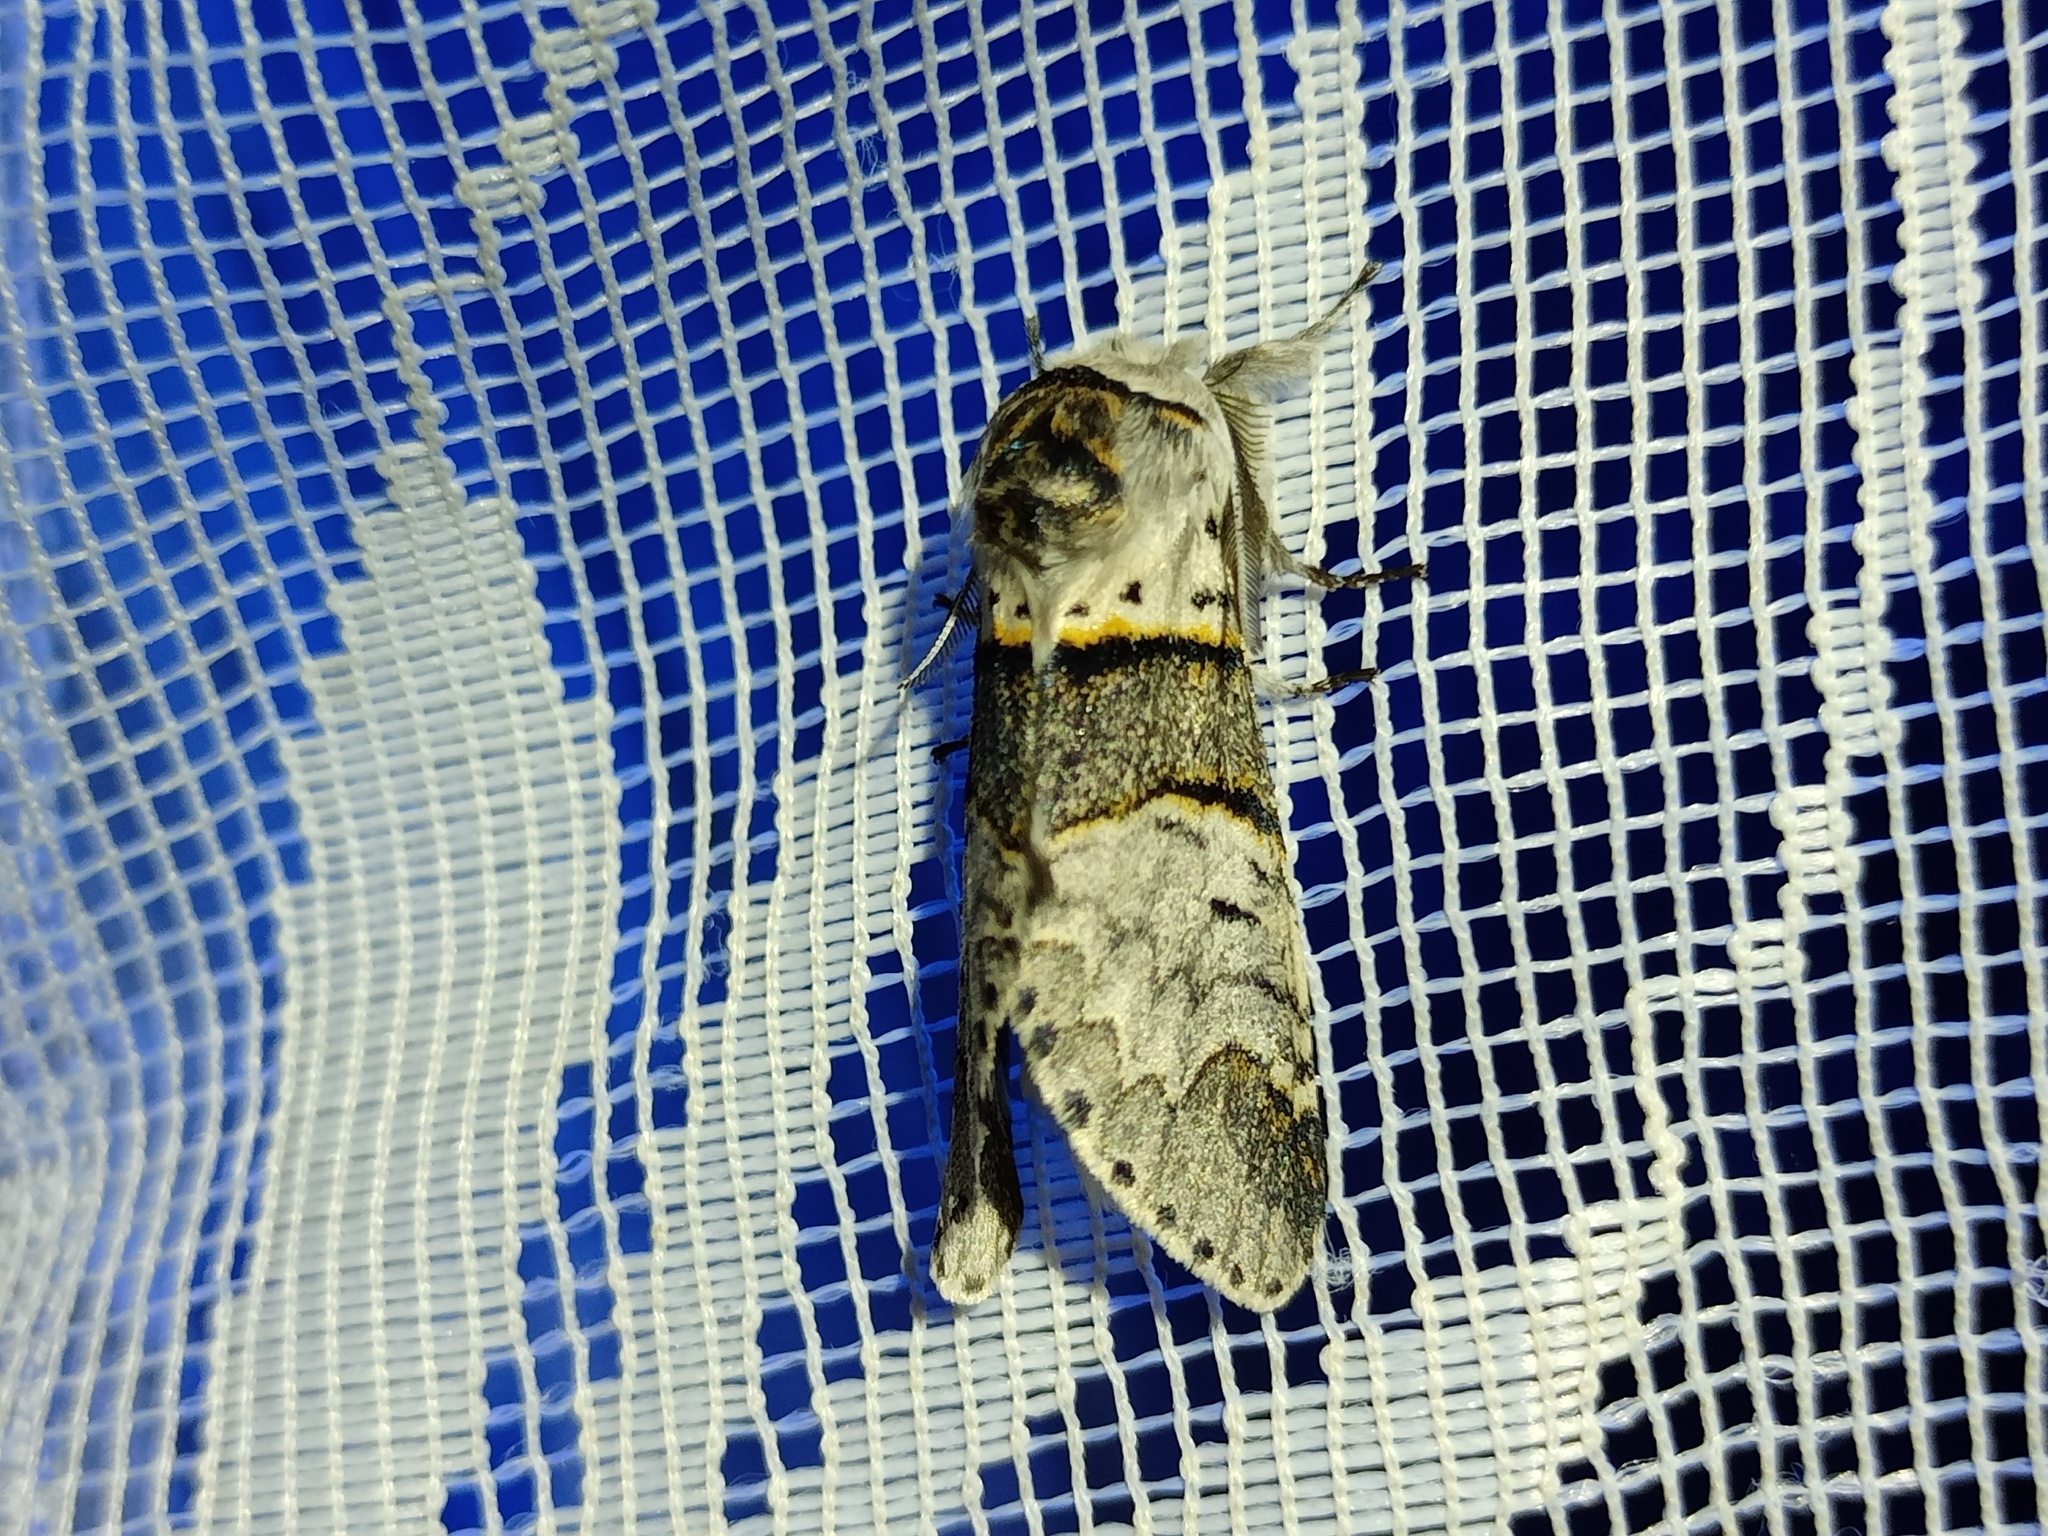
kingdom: Animalia
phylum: Arthropoda
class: Insecta
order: Lepidoptera
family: Notodontidae
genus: Furcula
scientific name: Furcula bifida
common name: Poplar kitten
